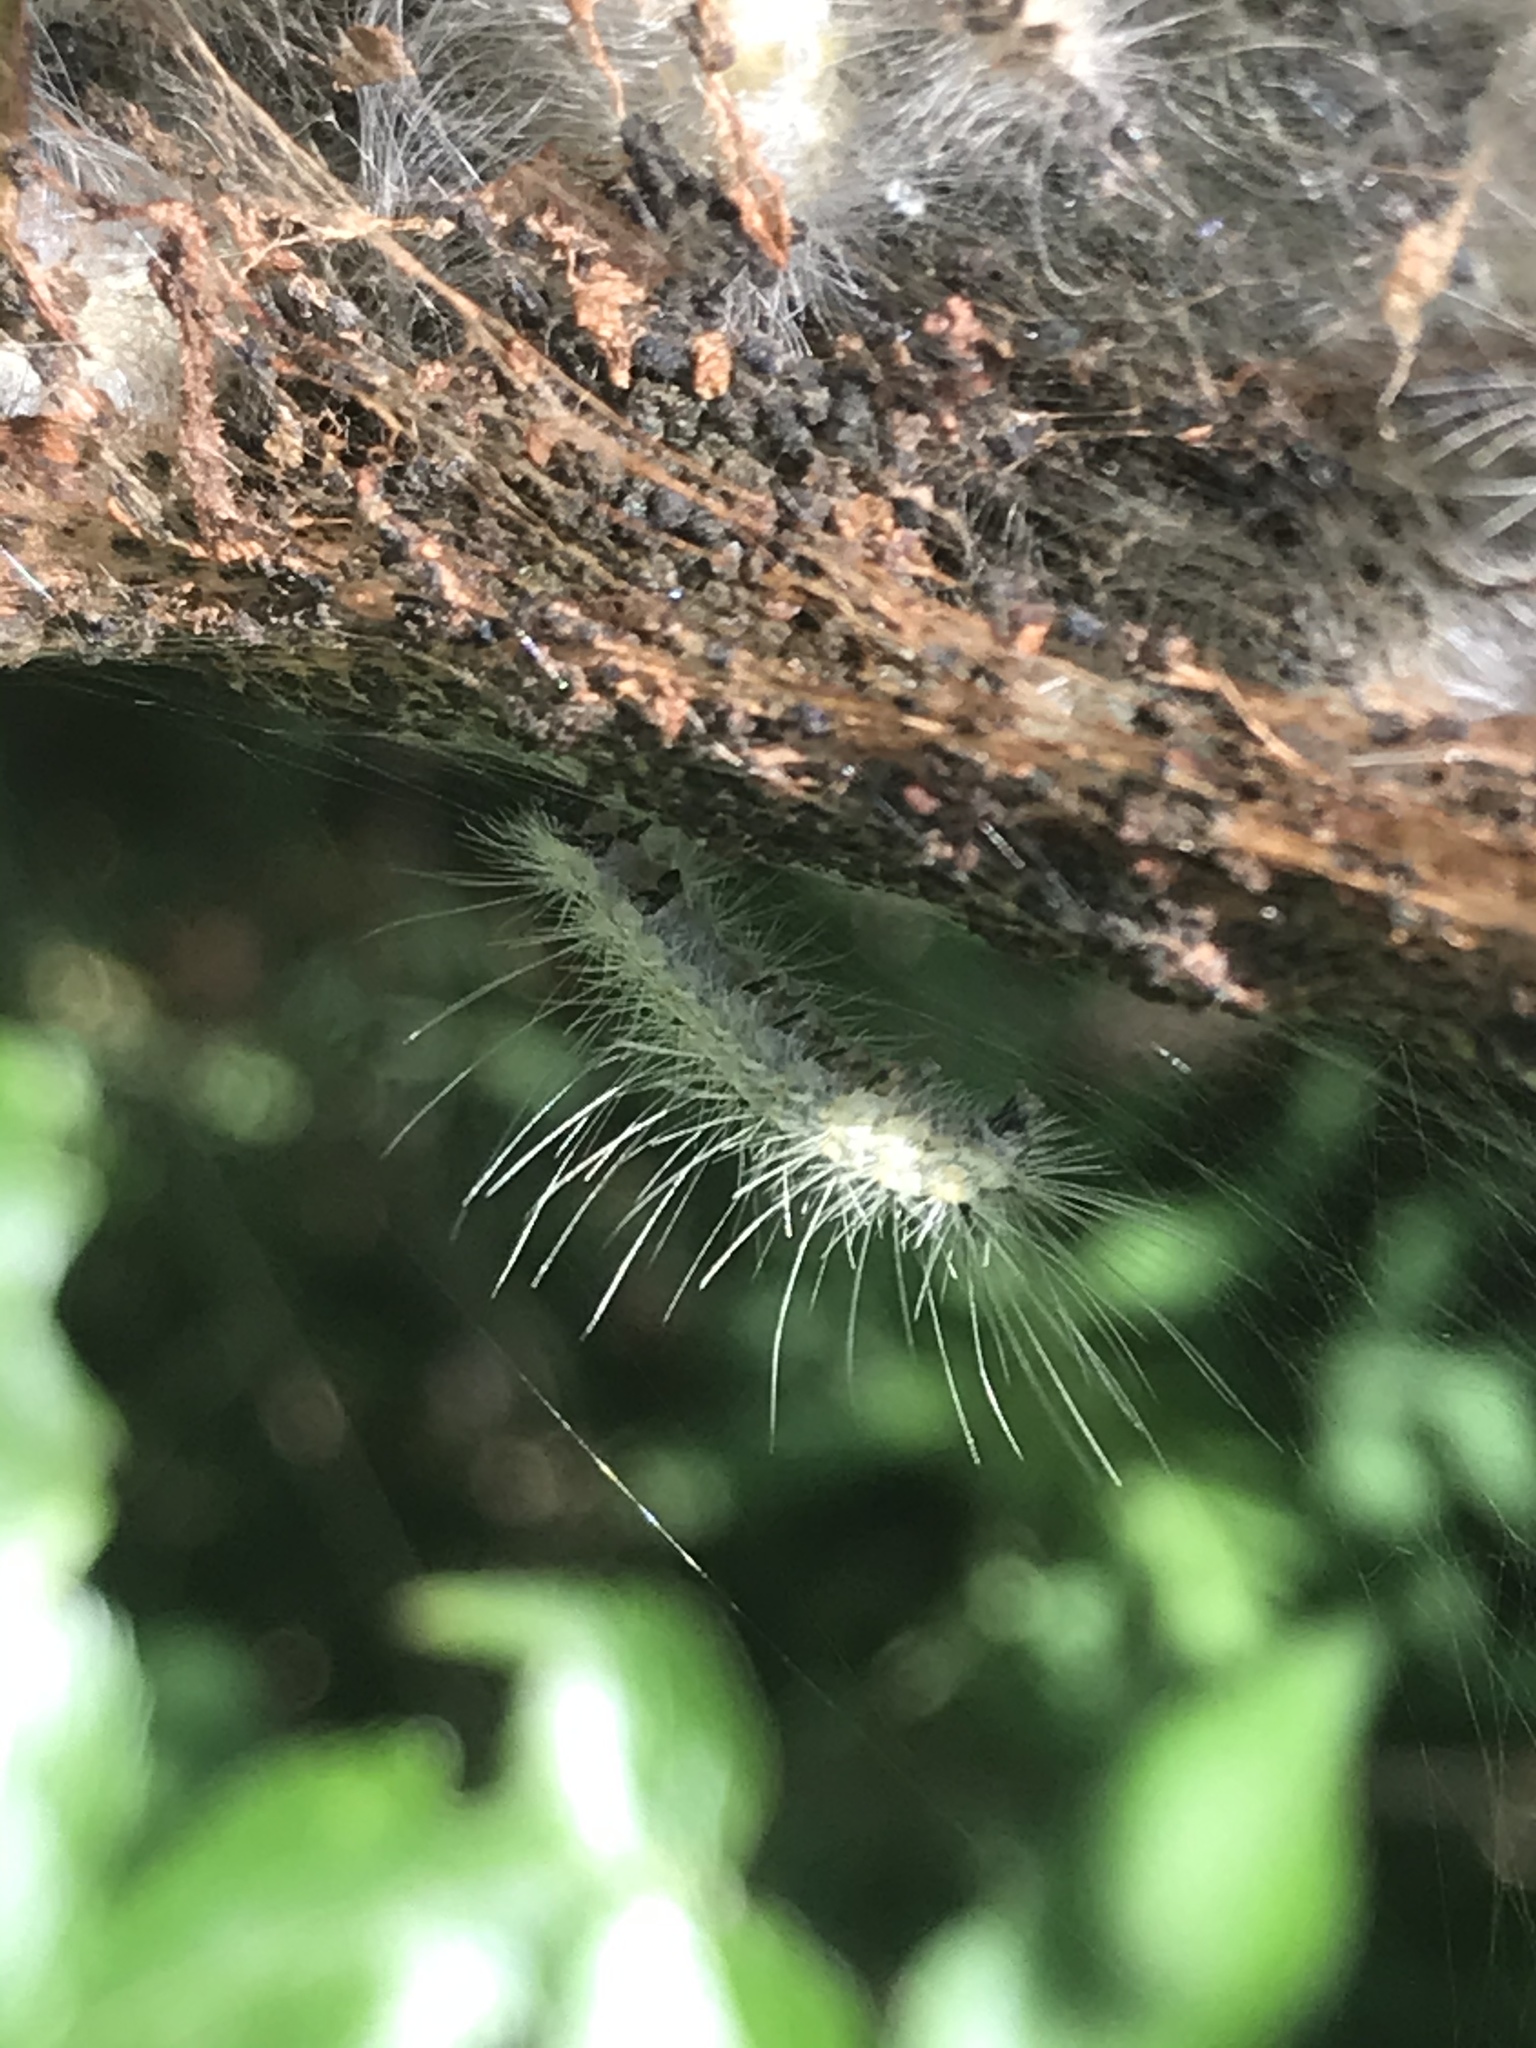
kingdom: Animalia
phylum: Arthropoda
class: Insecta
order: Lepidoptera
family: Erebidae
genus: Hyphantria
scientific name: Hyphantria cunea
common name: American white moth
